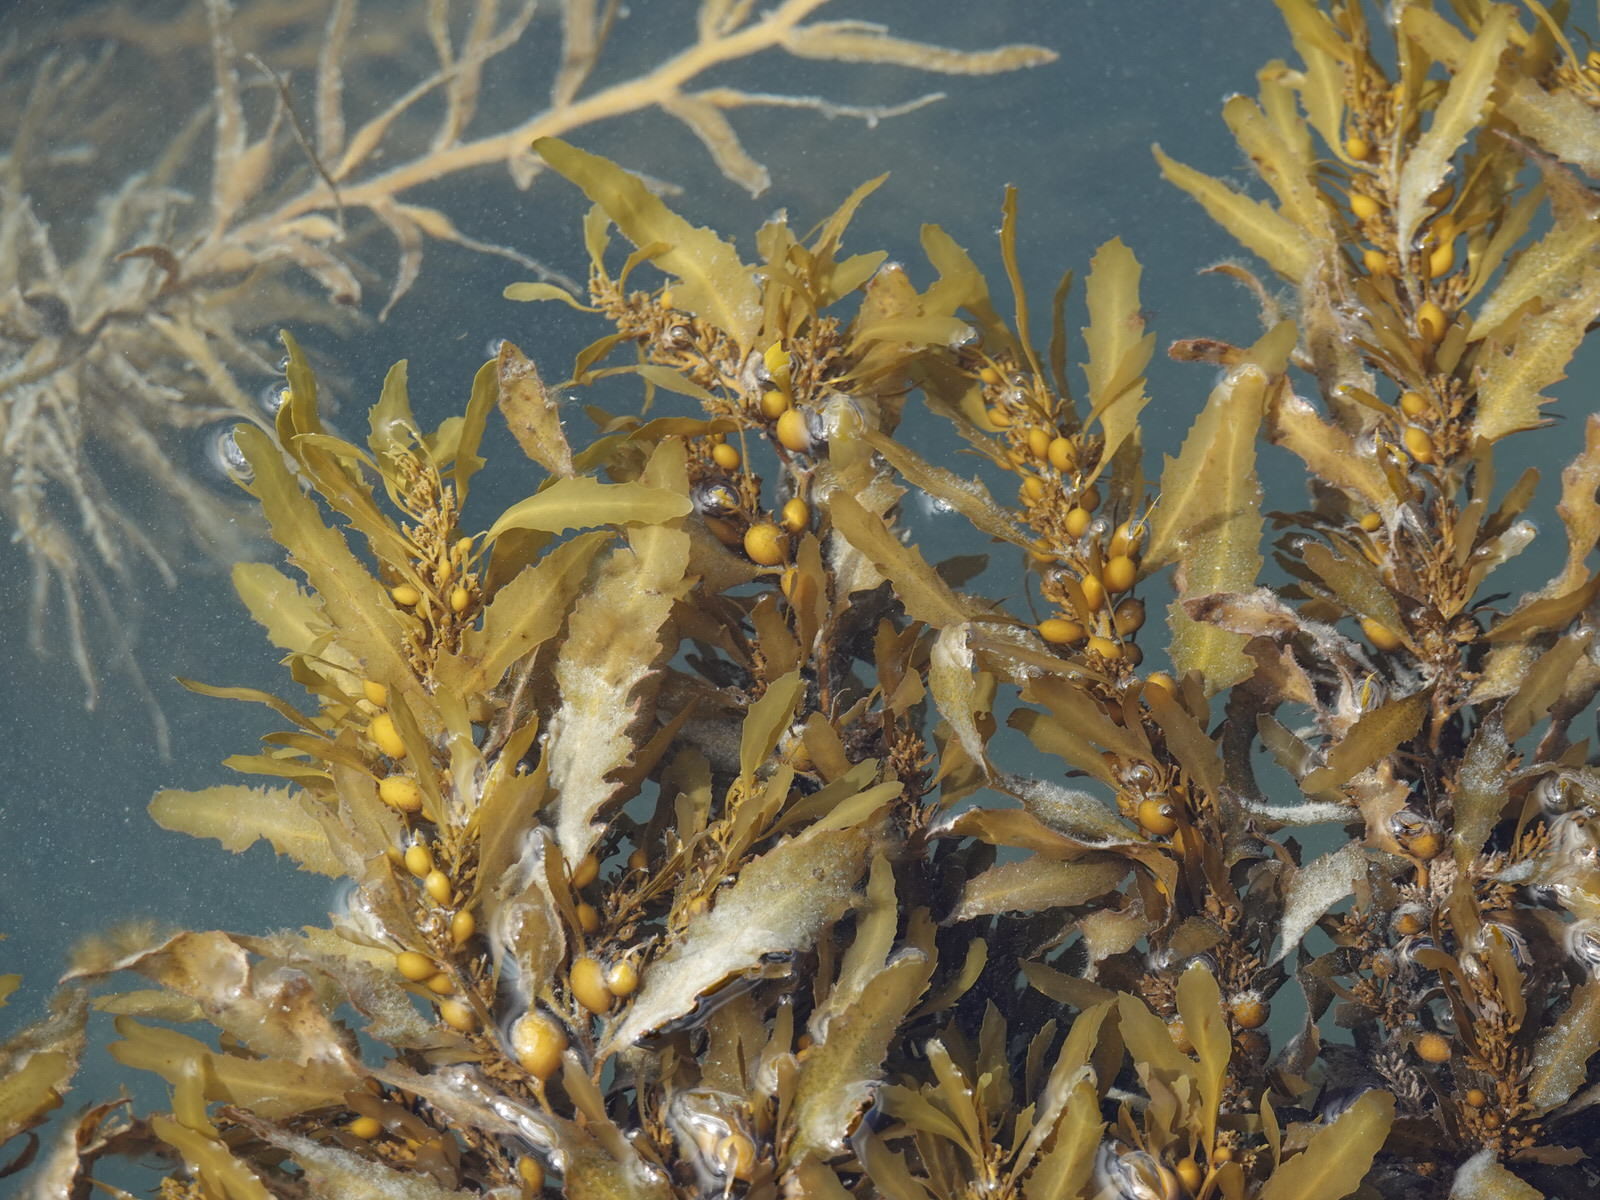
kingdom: Chromista
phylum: Ochrophyta
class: Phaeophyceae
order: Fucales
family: Sargassaceae
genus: Sargassum
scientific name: Sargassum sinclairii
